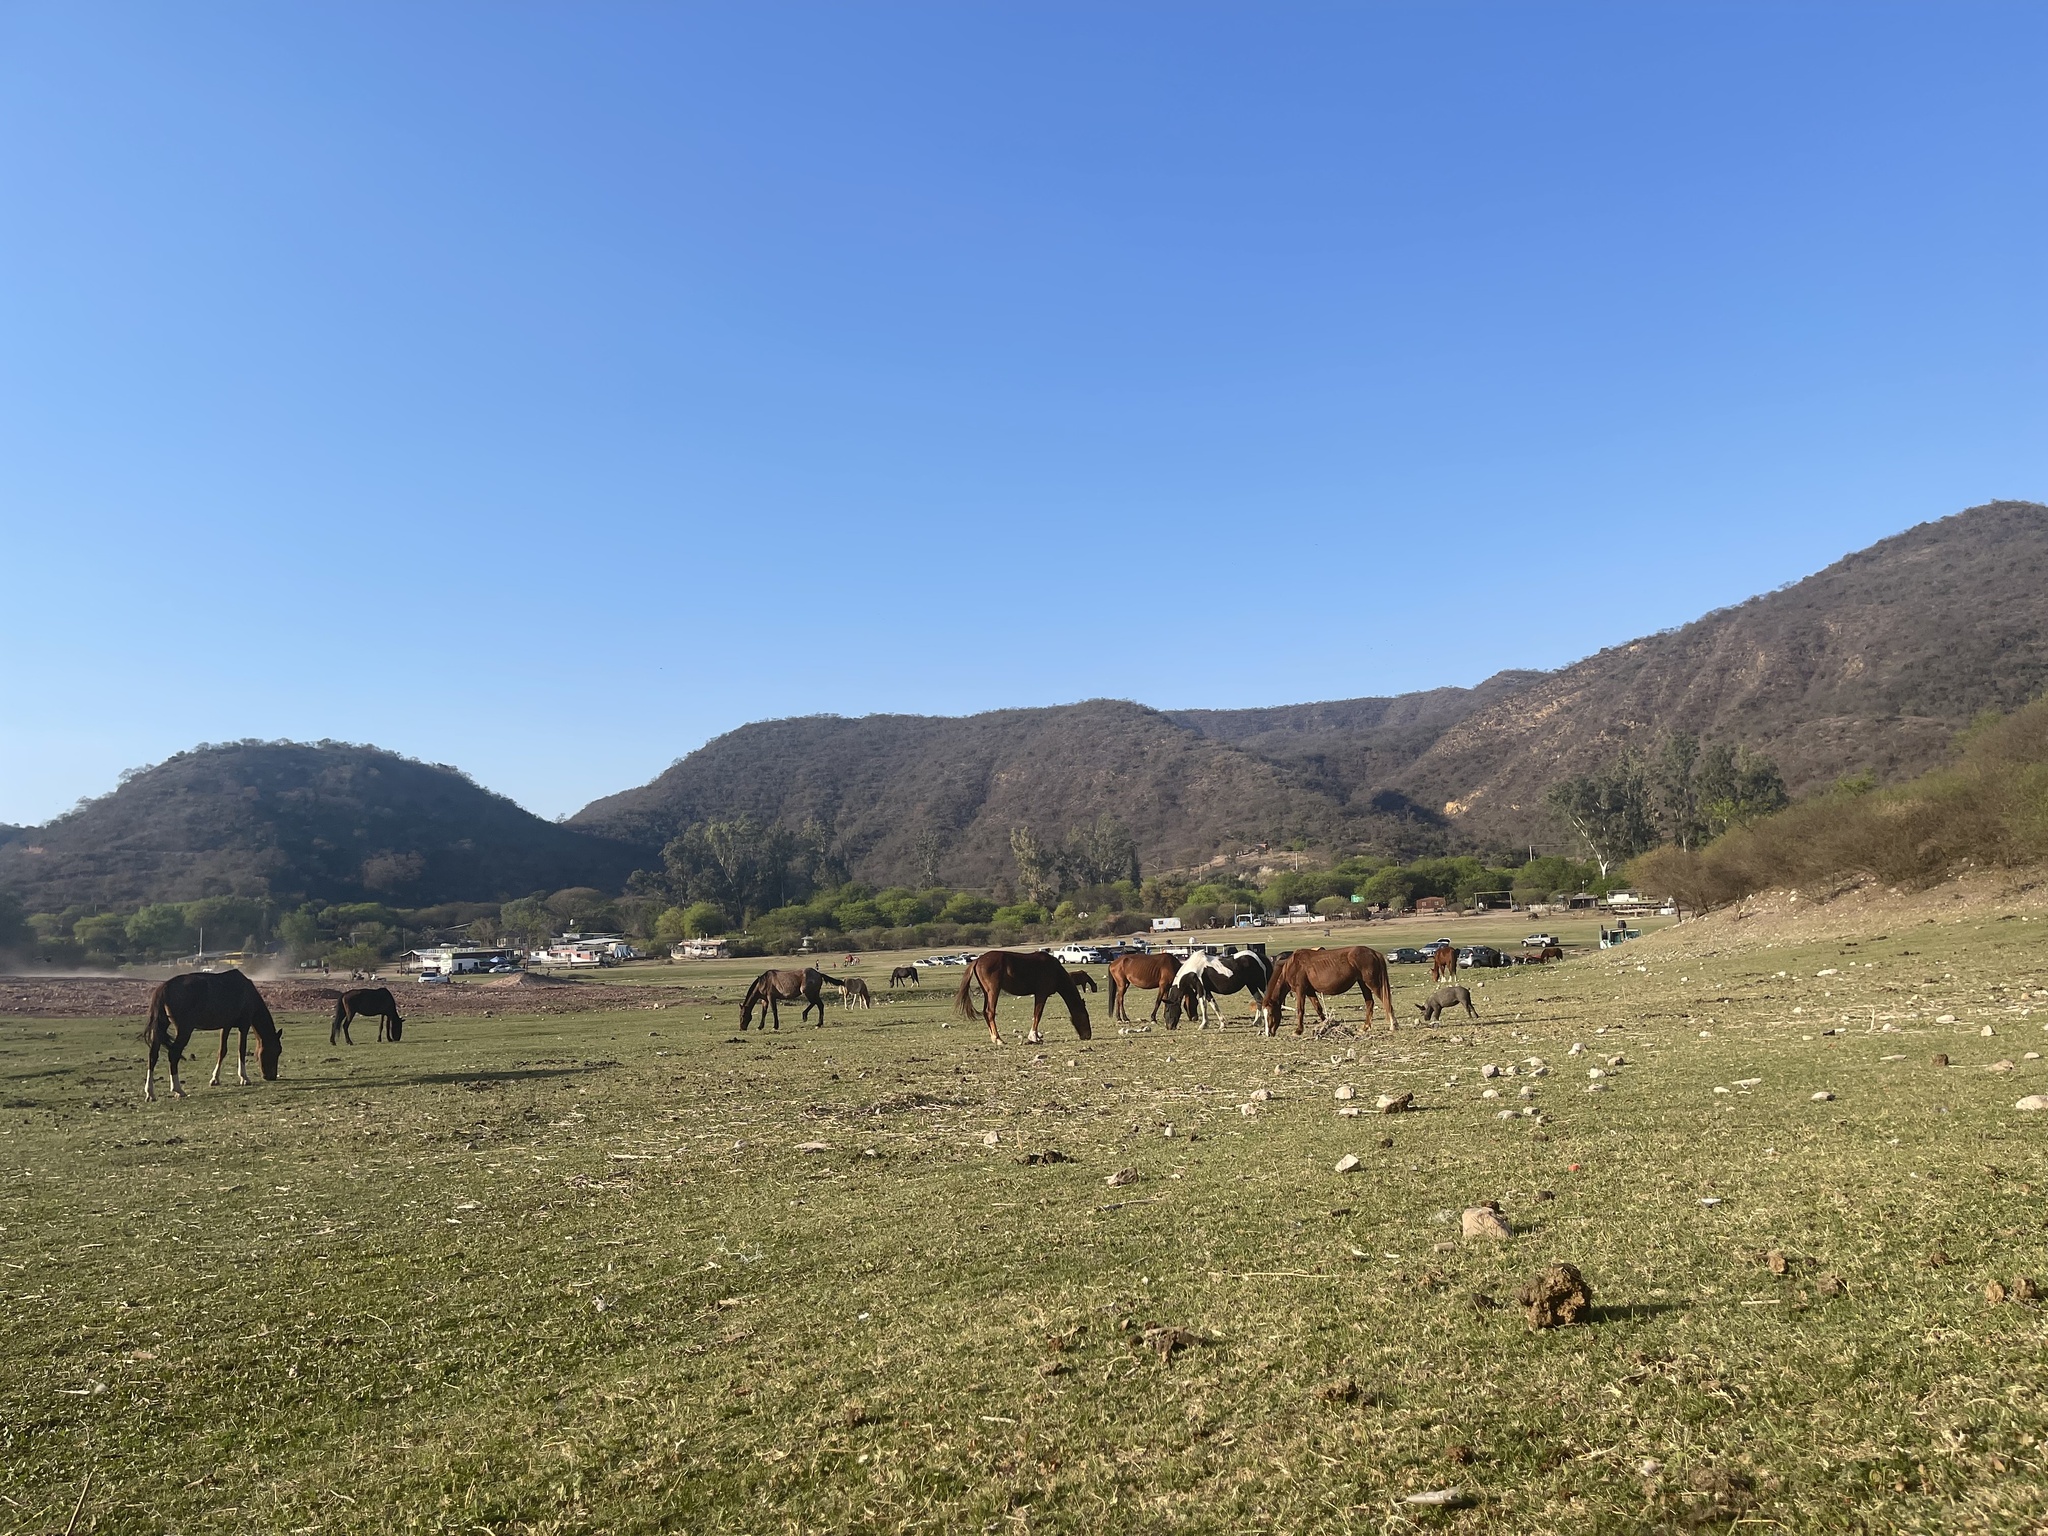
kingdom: Animalia
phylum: Chordata
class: Mammalia
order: Perissodactyla
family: Equidae
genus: Equus
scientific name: Equus caballus
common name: Horse
